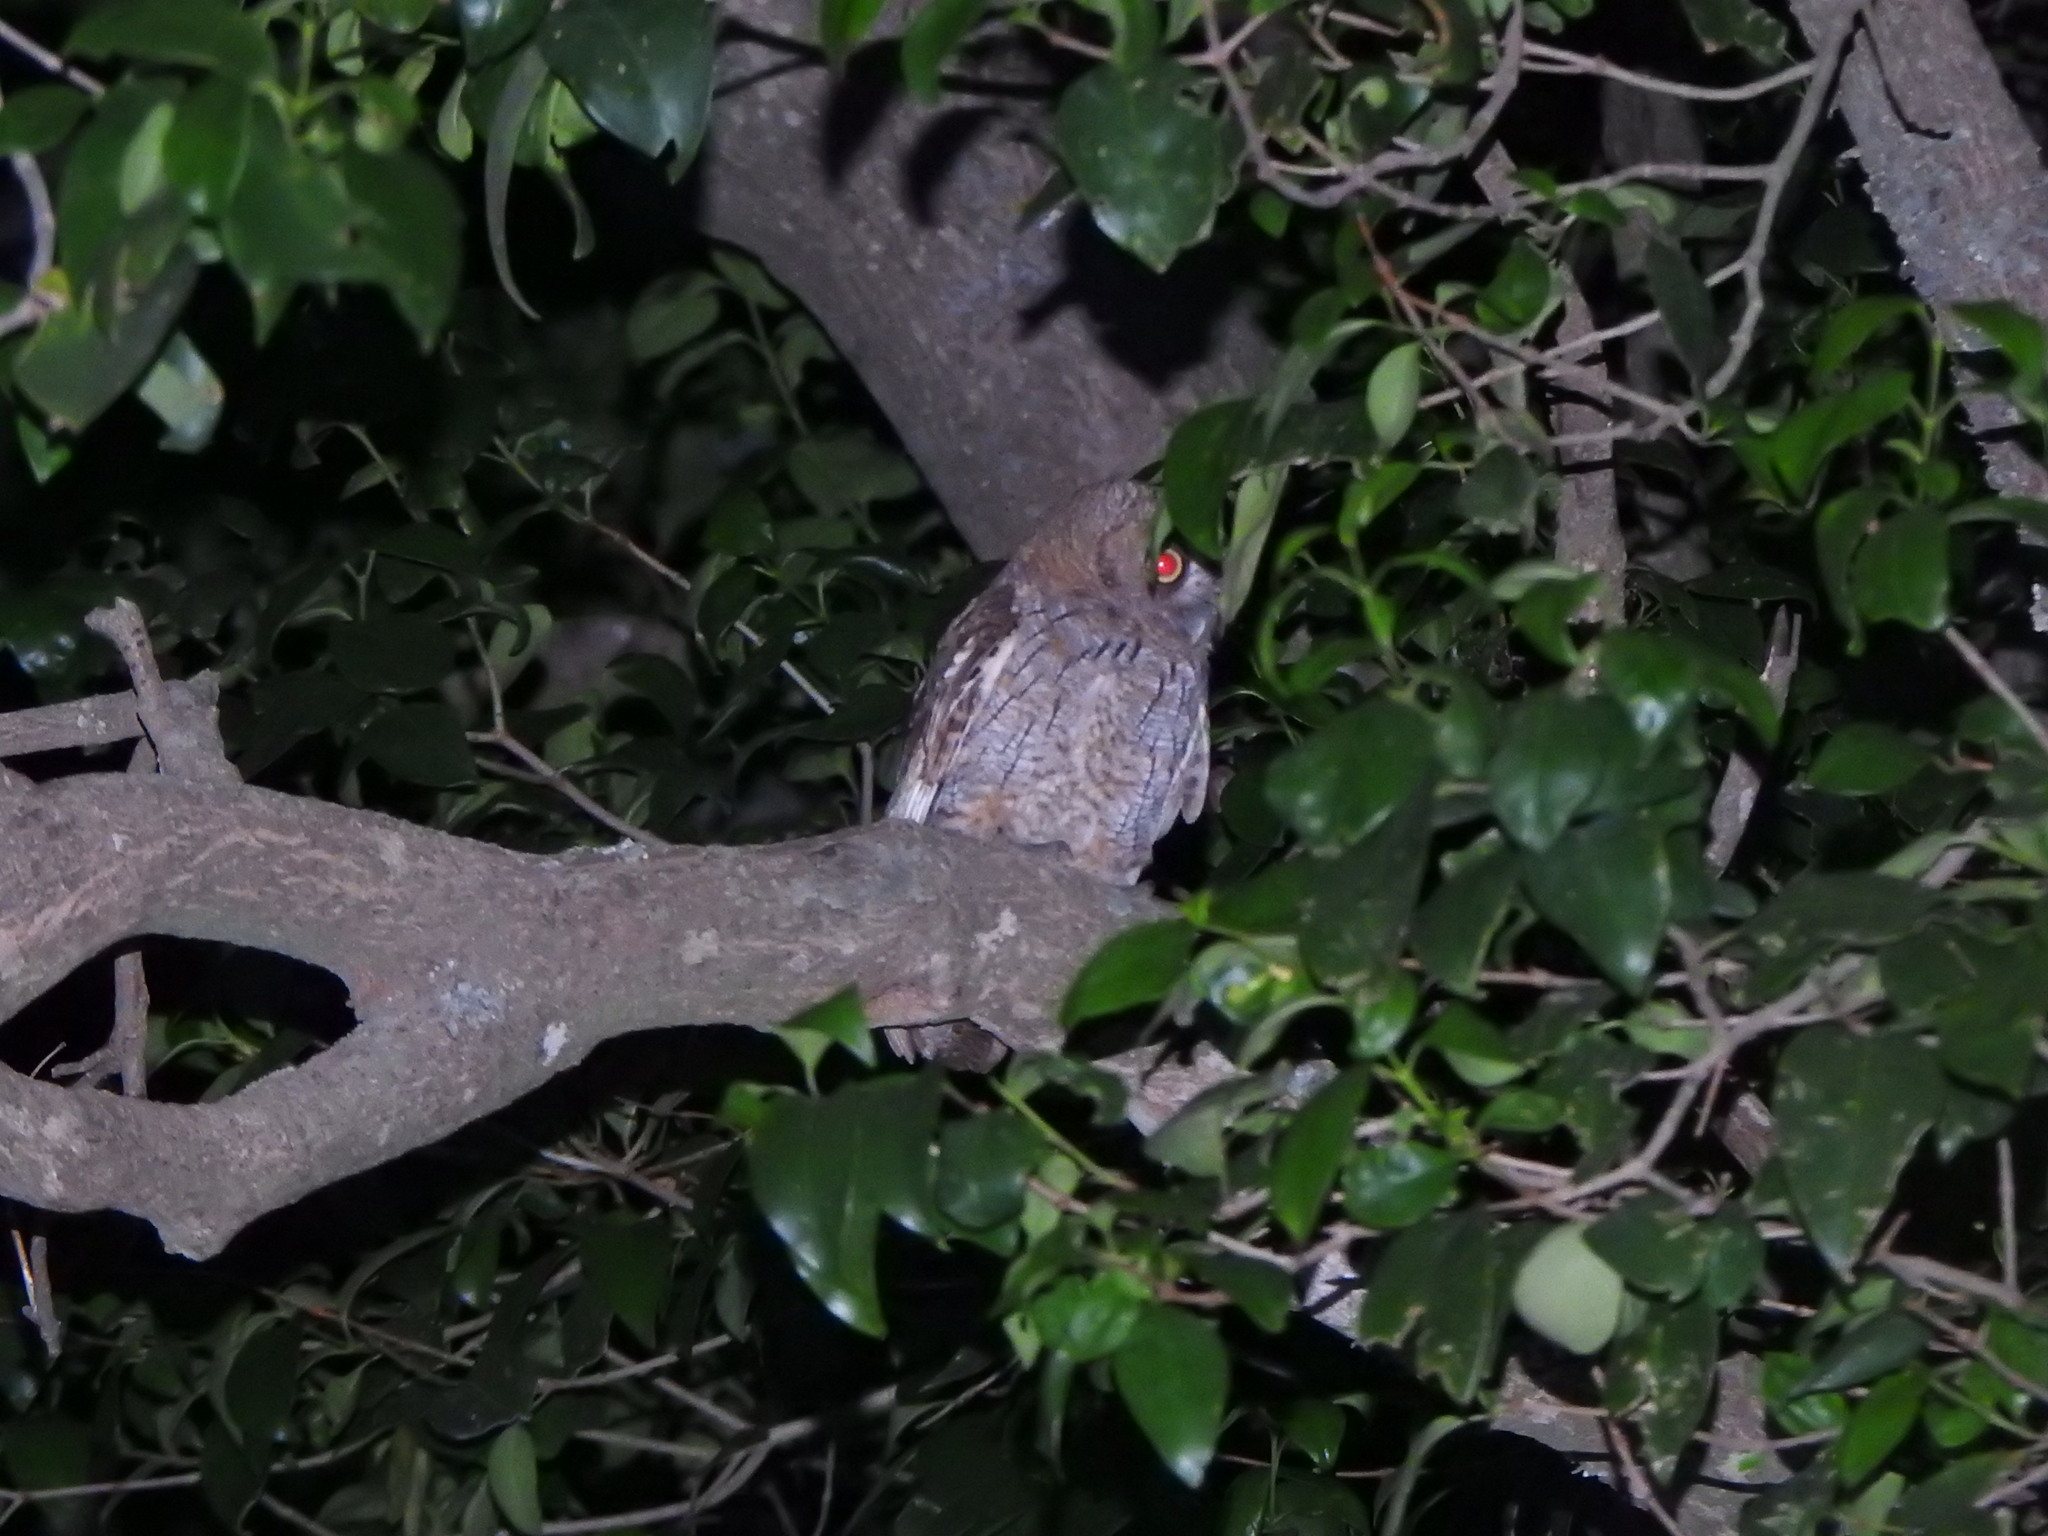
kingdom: Animalia
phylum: Chordata
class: Aves
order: Strigiformes
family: Strigidae
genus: Megascops
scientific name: Megascops choliba
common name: Tropical screech-owl
